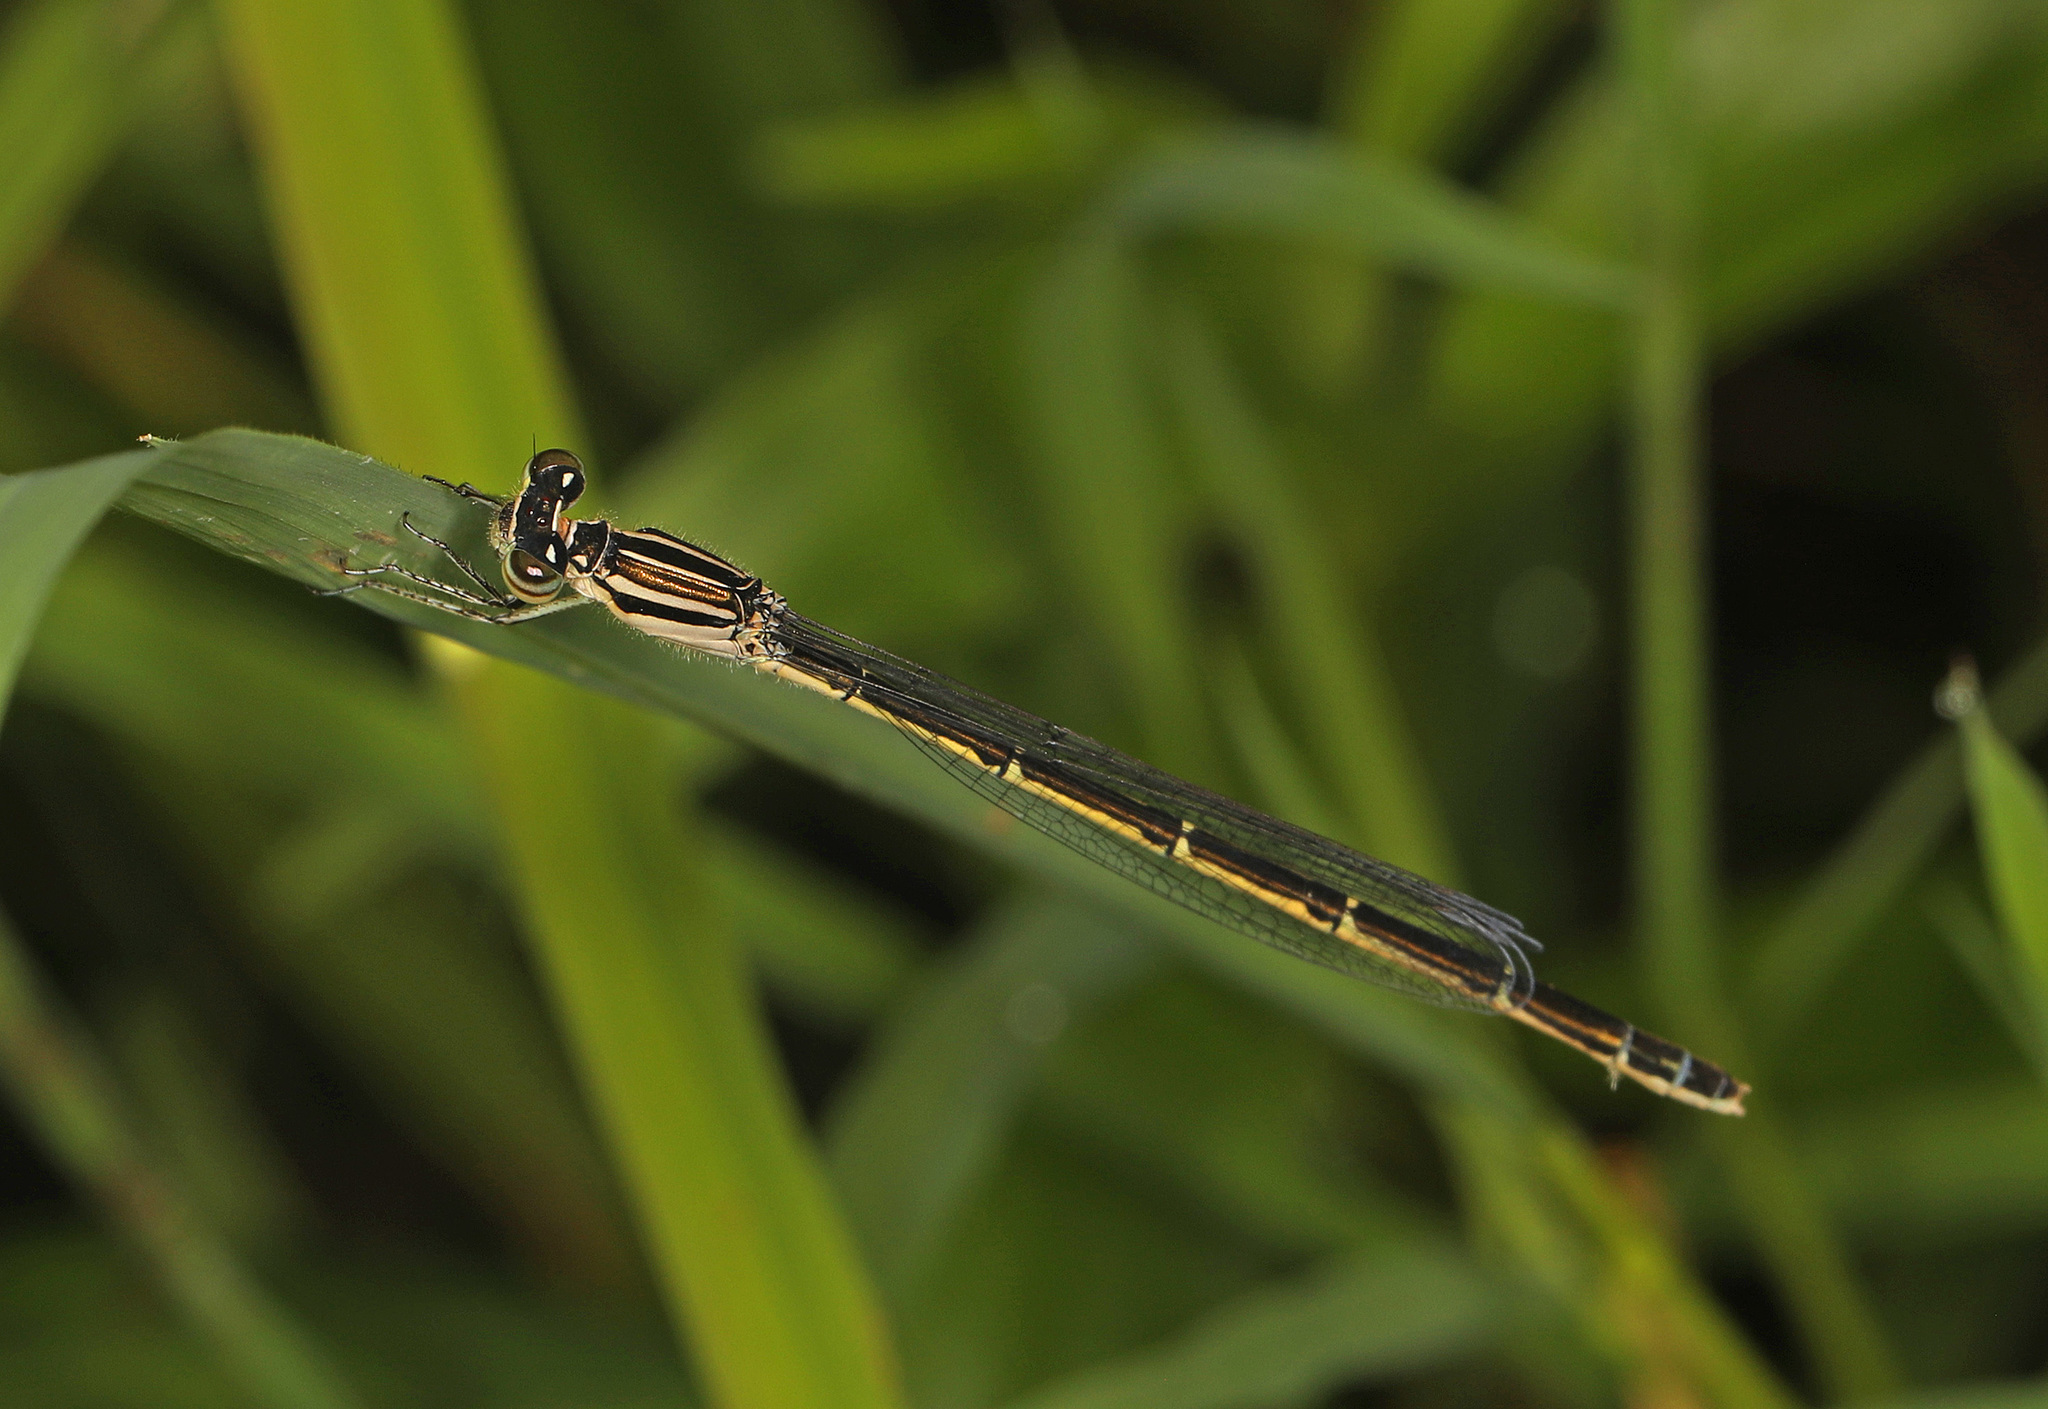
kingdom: Animalia
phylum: Arthropoda
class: Insecta
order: Odonata
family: Coenagrionidae
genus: Enallagma
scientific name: Enallagma durum
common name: Big bluet
